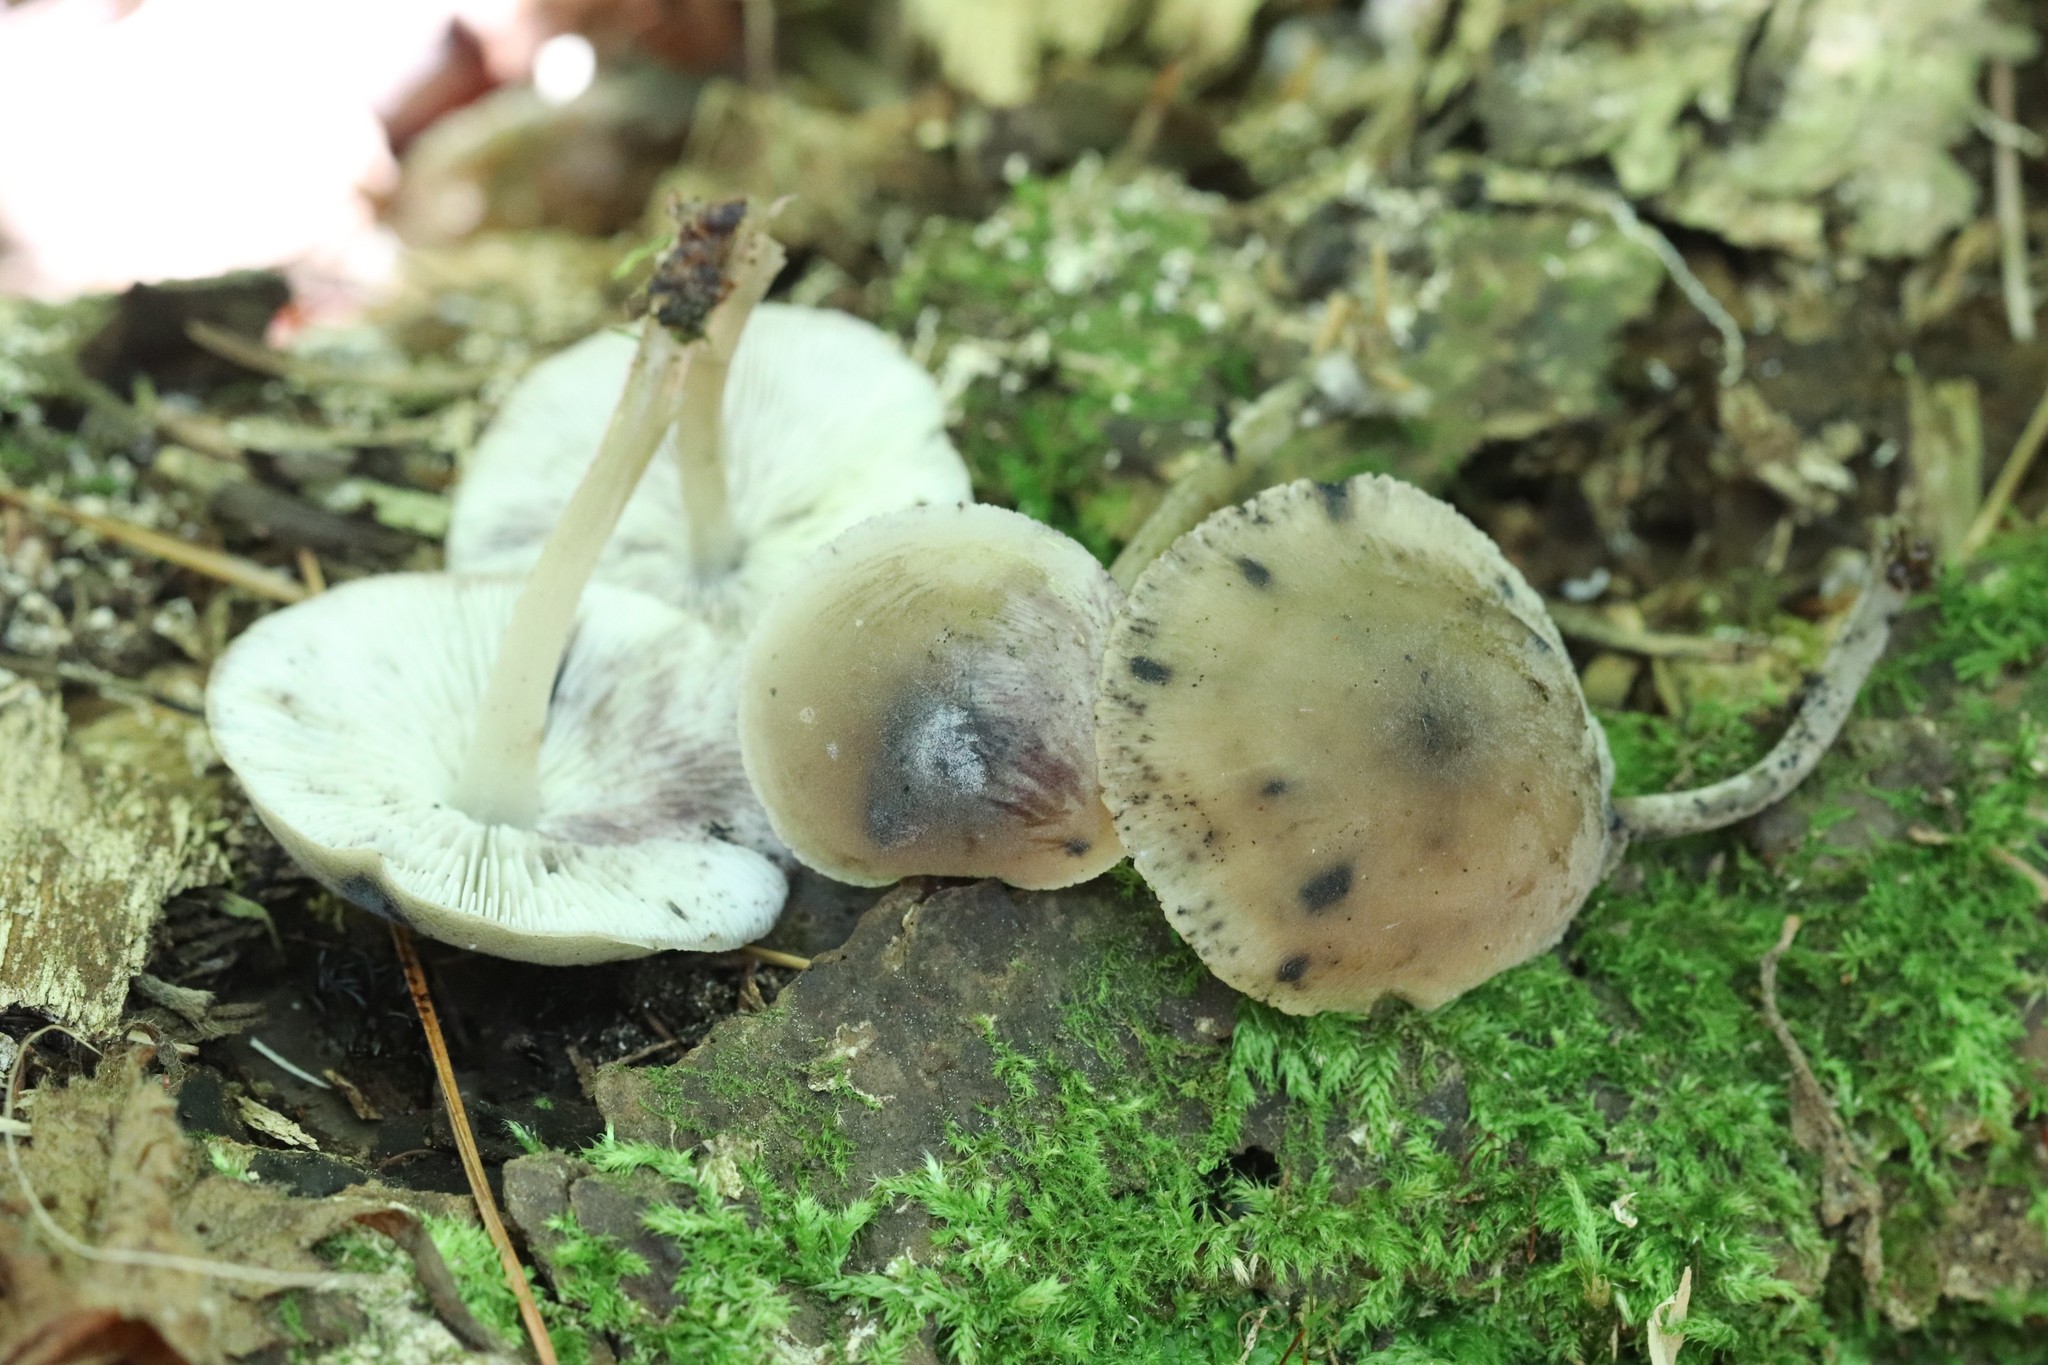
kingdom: Fungi
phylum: Basidiomycota
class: Agaricomycetes
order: Agaricales
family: Mycenaceae
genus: Hydropus
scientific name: Hydropus atramentosus
